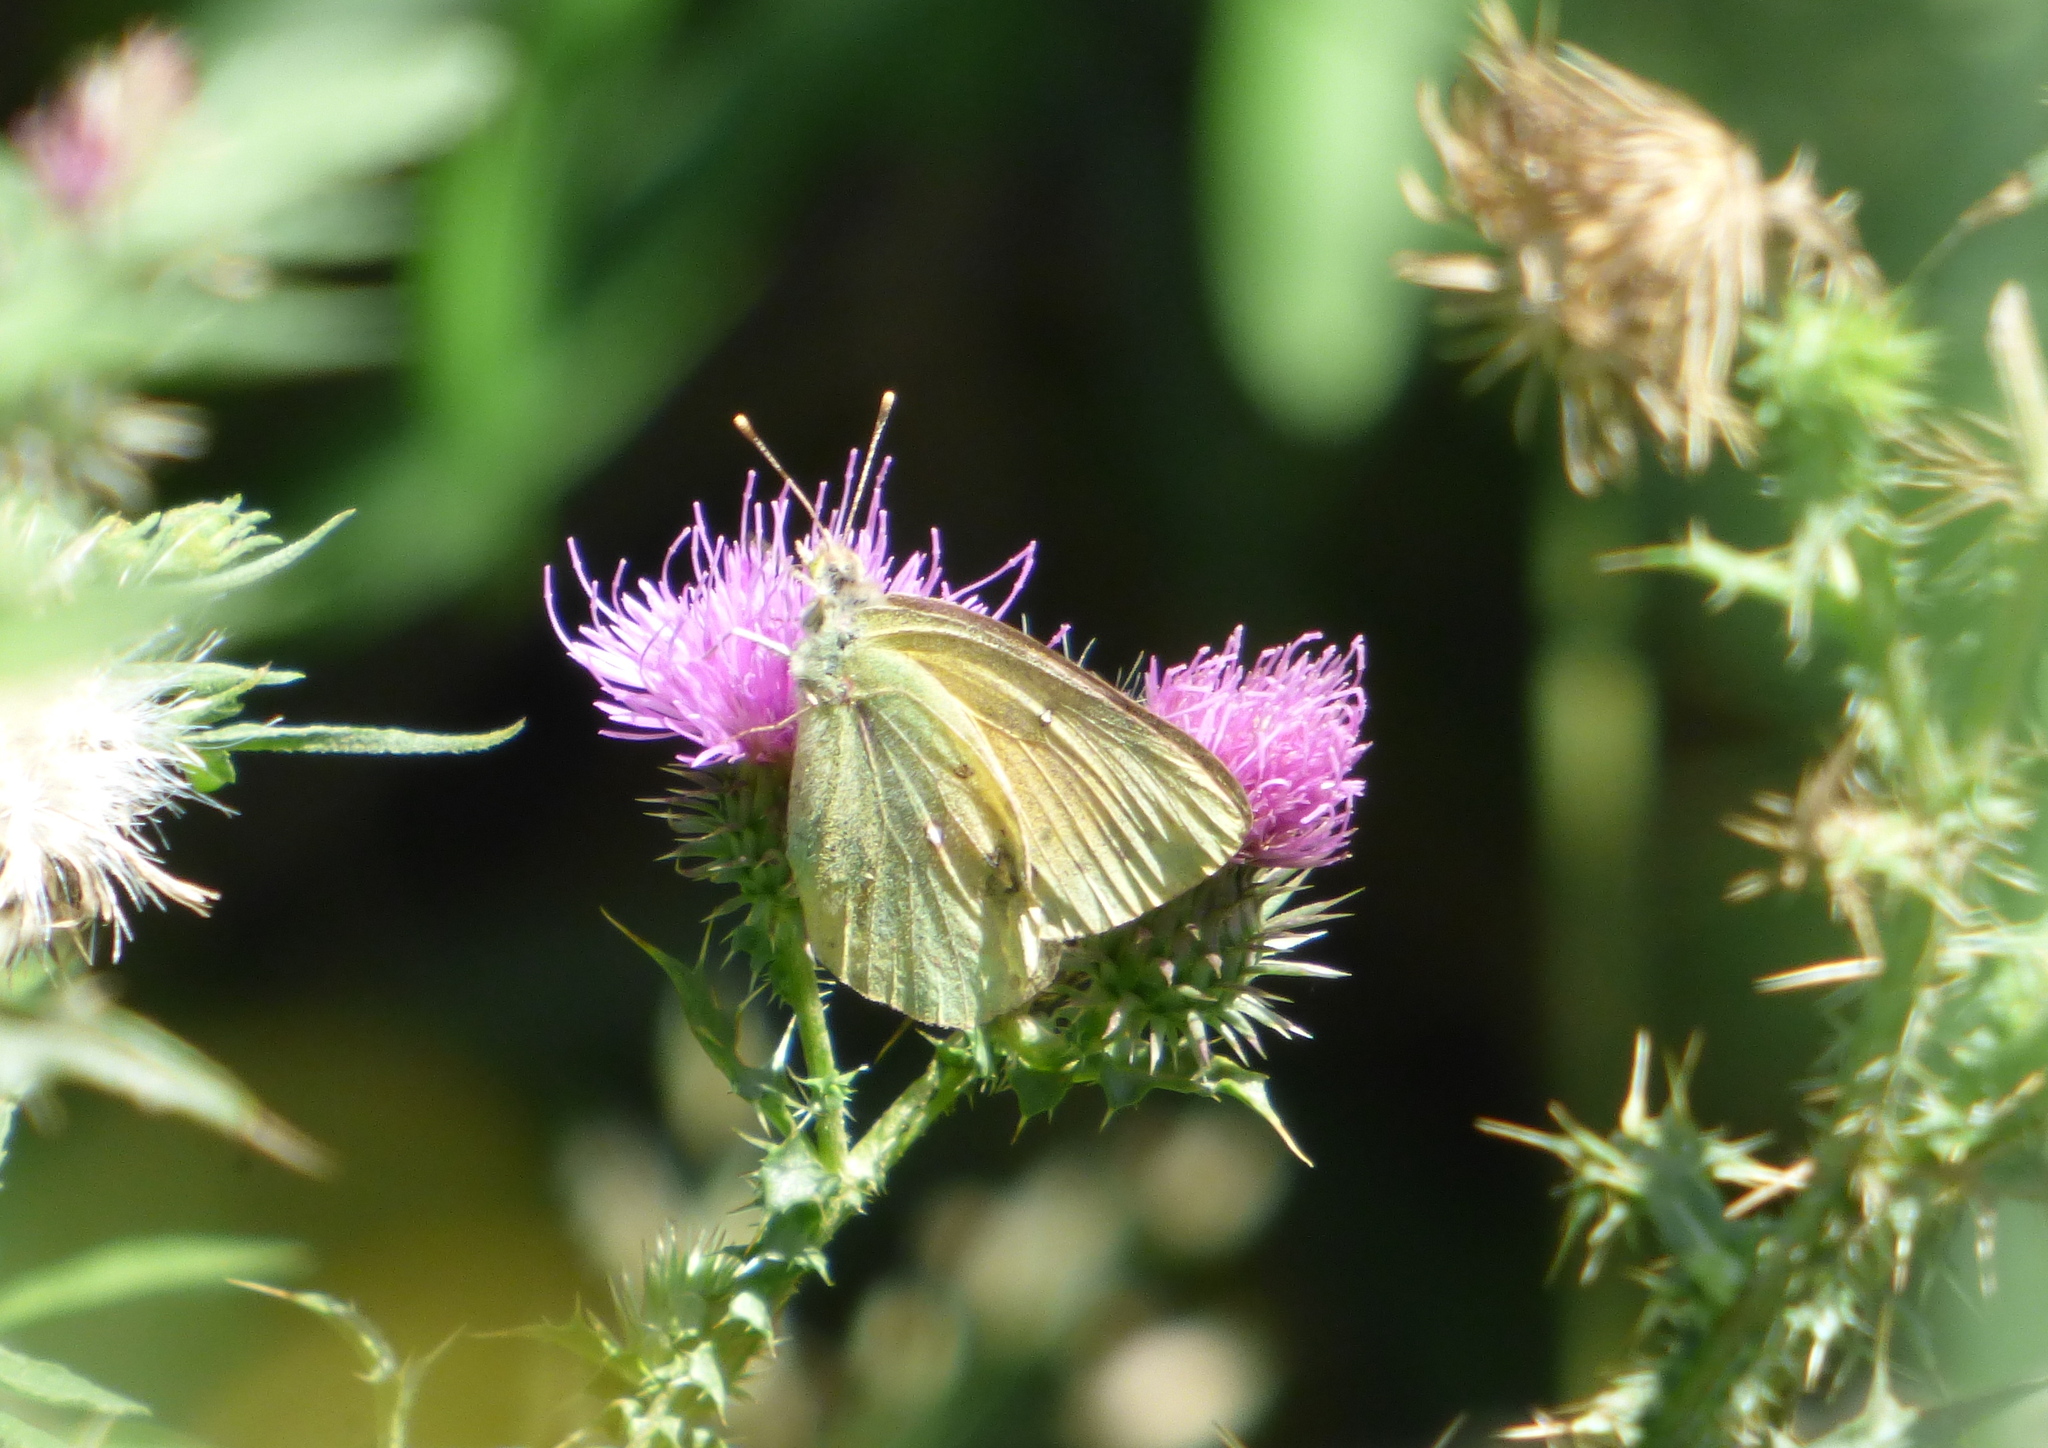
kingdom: Animalia
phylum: Arthropoda
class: Insecta
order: Lepidoptera
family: Pieridae
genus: Colias
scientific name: Colias lesbia
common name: Lesbia clouded yellow
